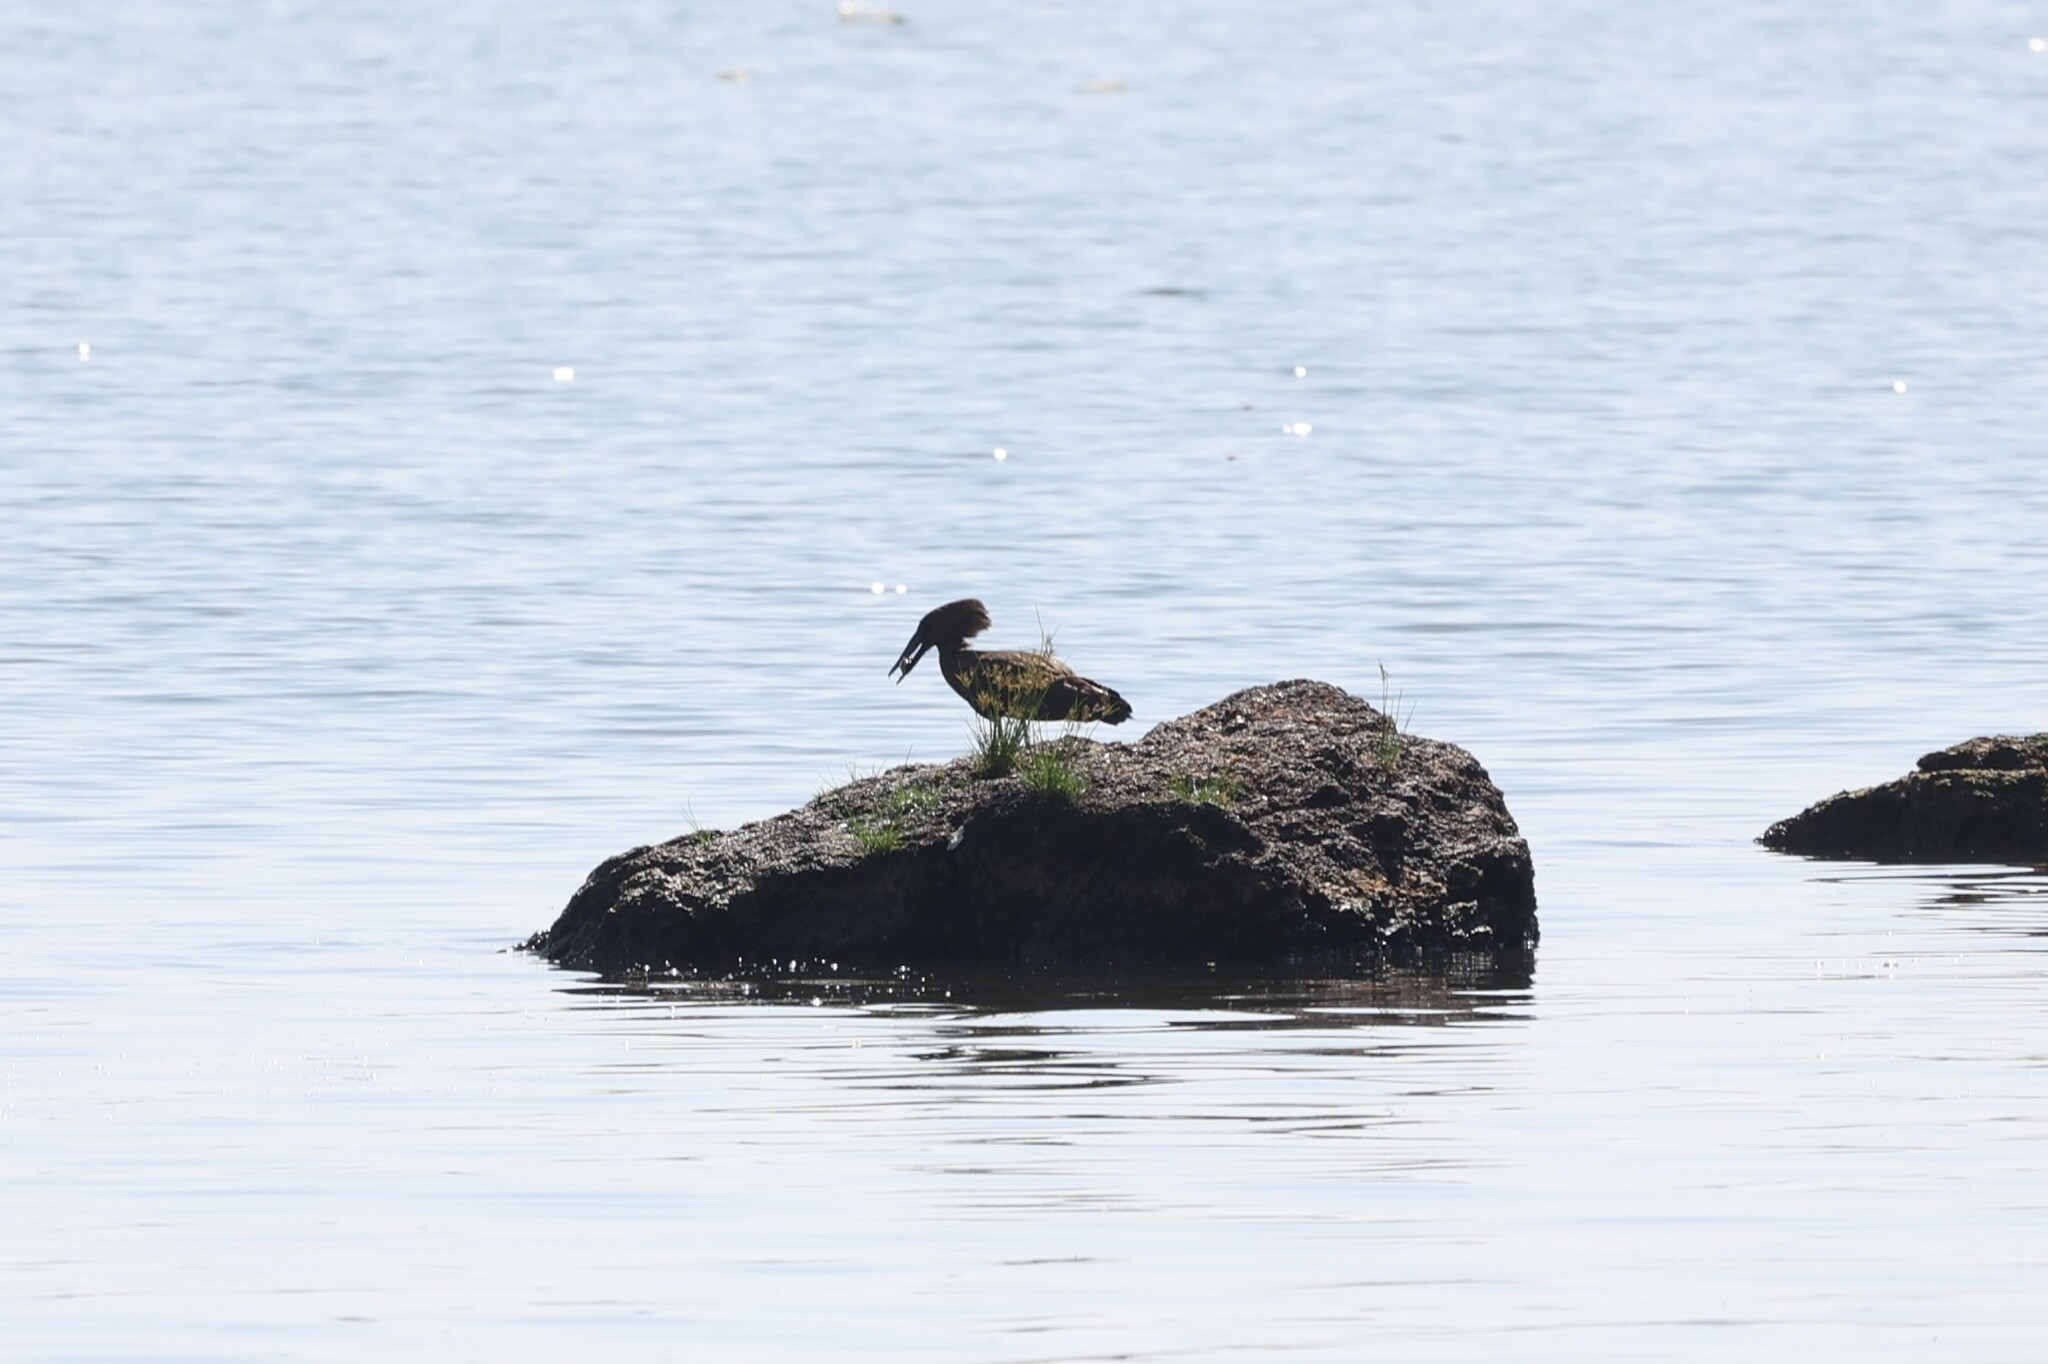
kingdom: Animalia
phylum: Chordata
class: Aves
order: Pelecaniformes
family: Scopidae
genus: Scopus
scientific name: Scopus umbretta
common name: Hamerkop
